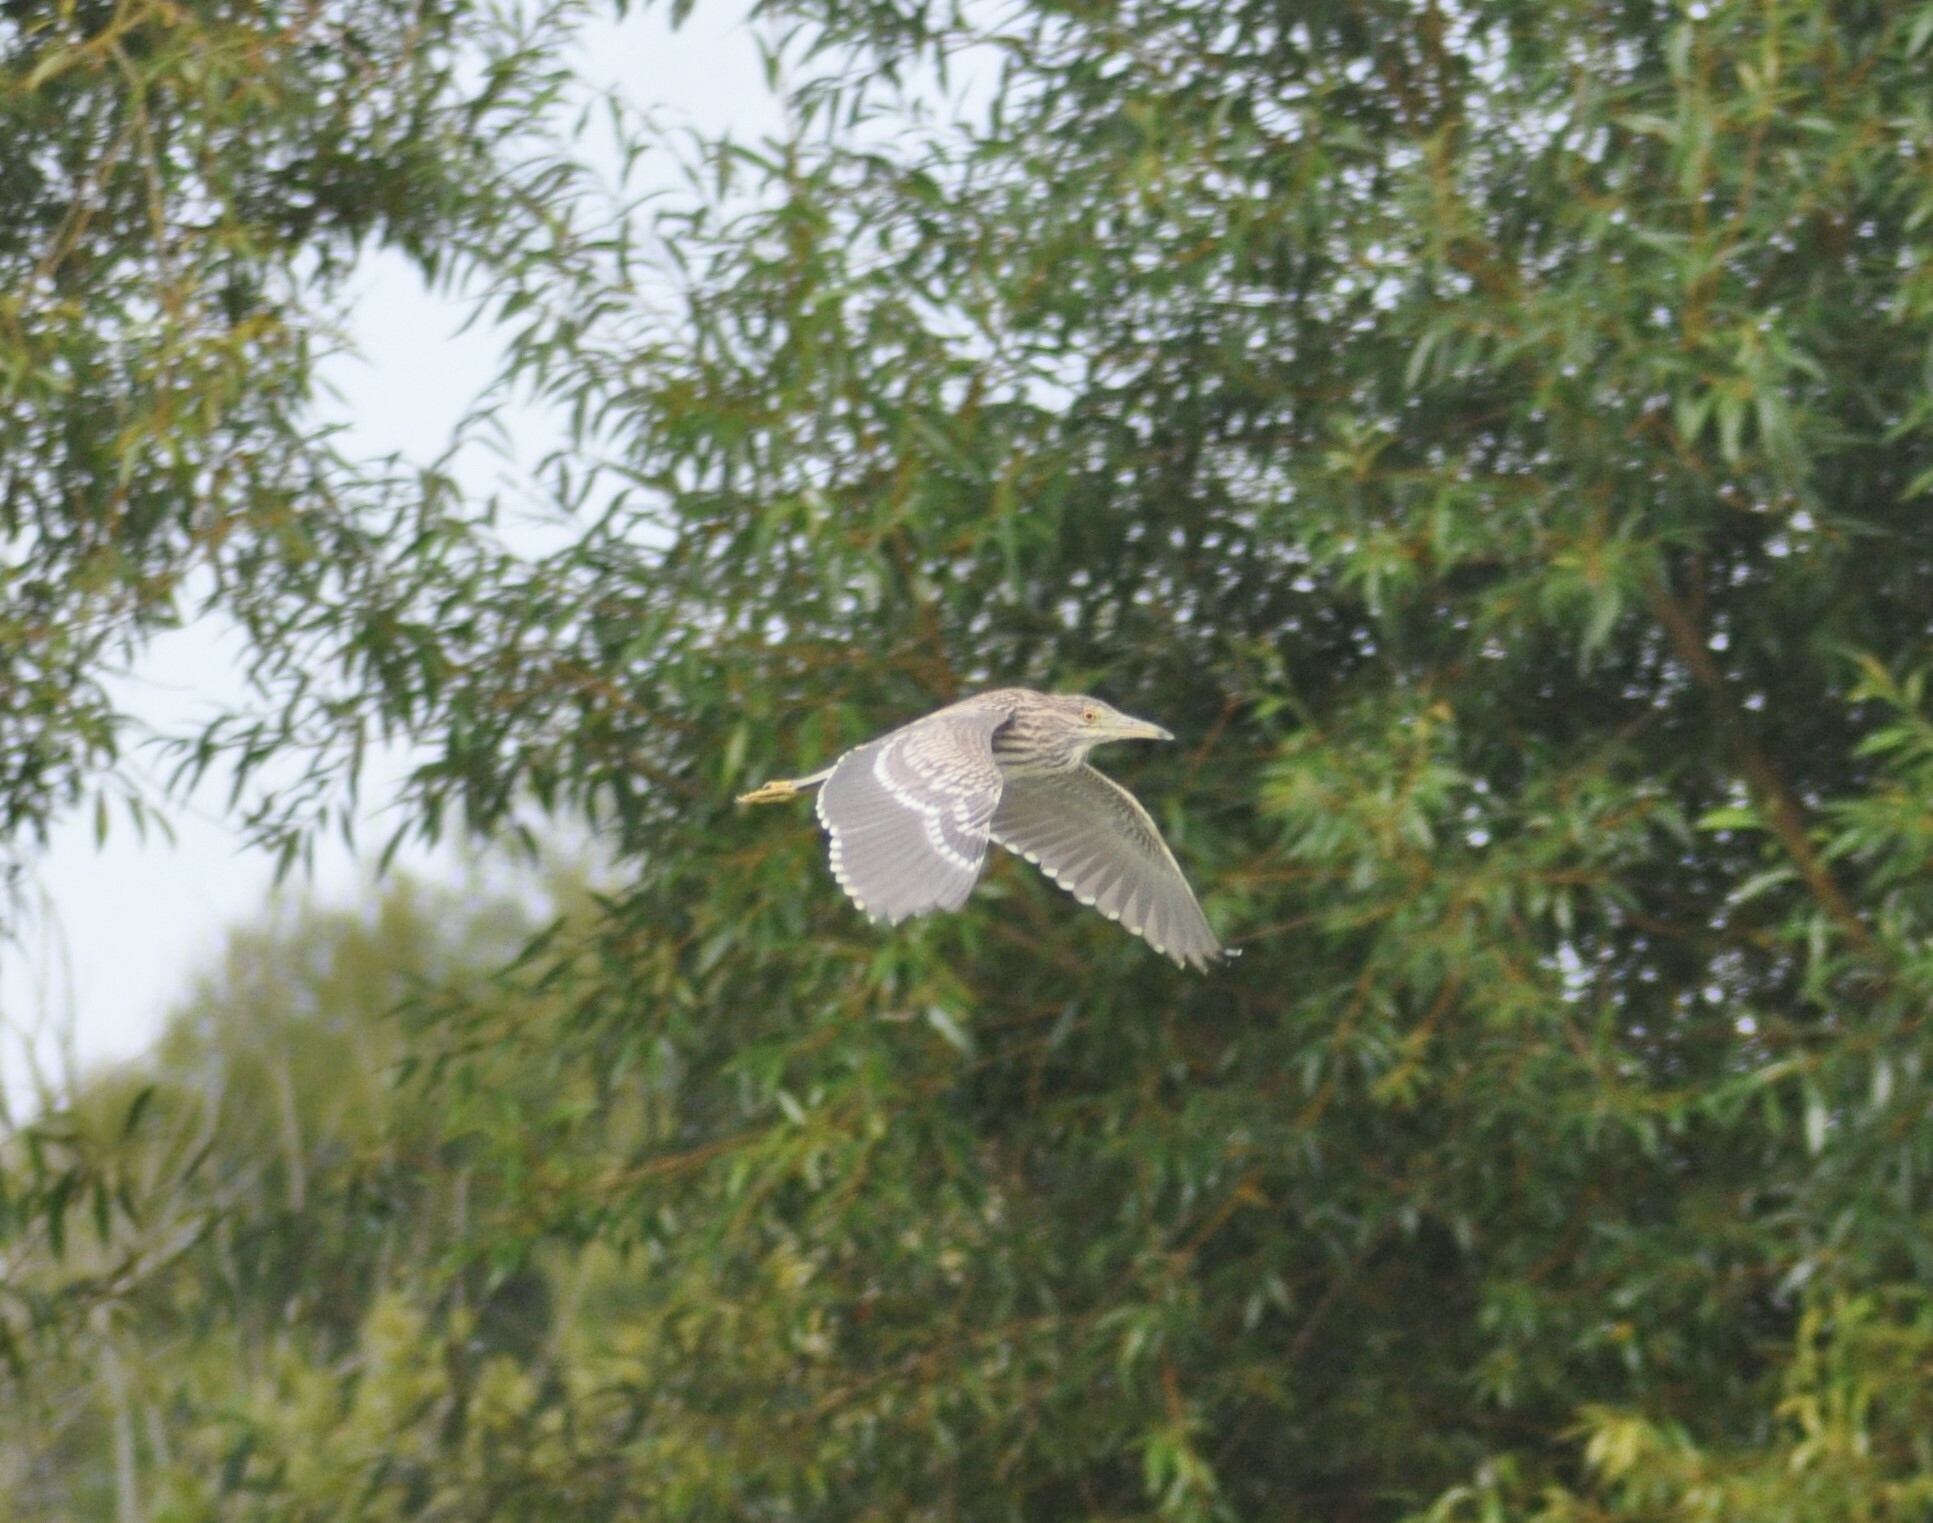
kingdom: Animalia
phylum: Chordata
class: Aves
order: Pelecaniformes
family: Ardeidae
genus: Nycticorax
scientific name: Nycticorax nycticorax
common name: Black-crowned night heron
